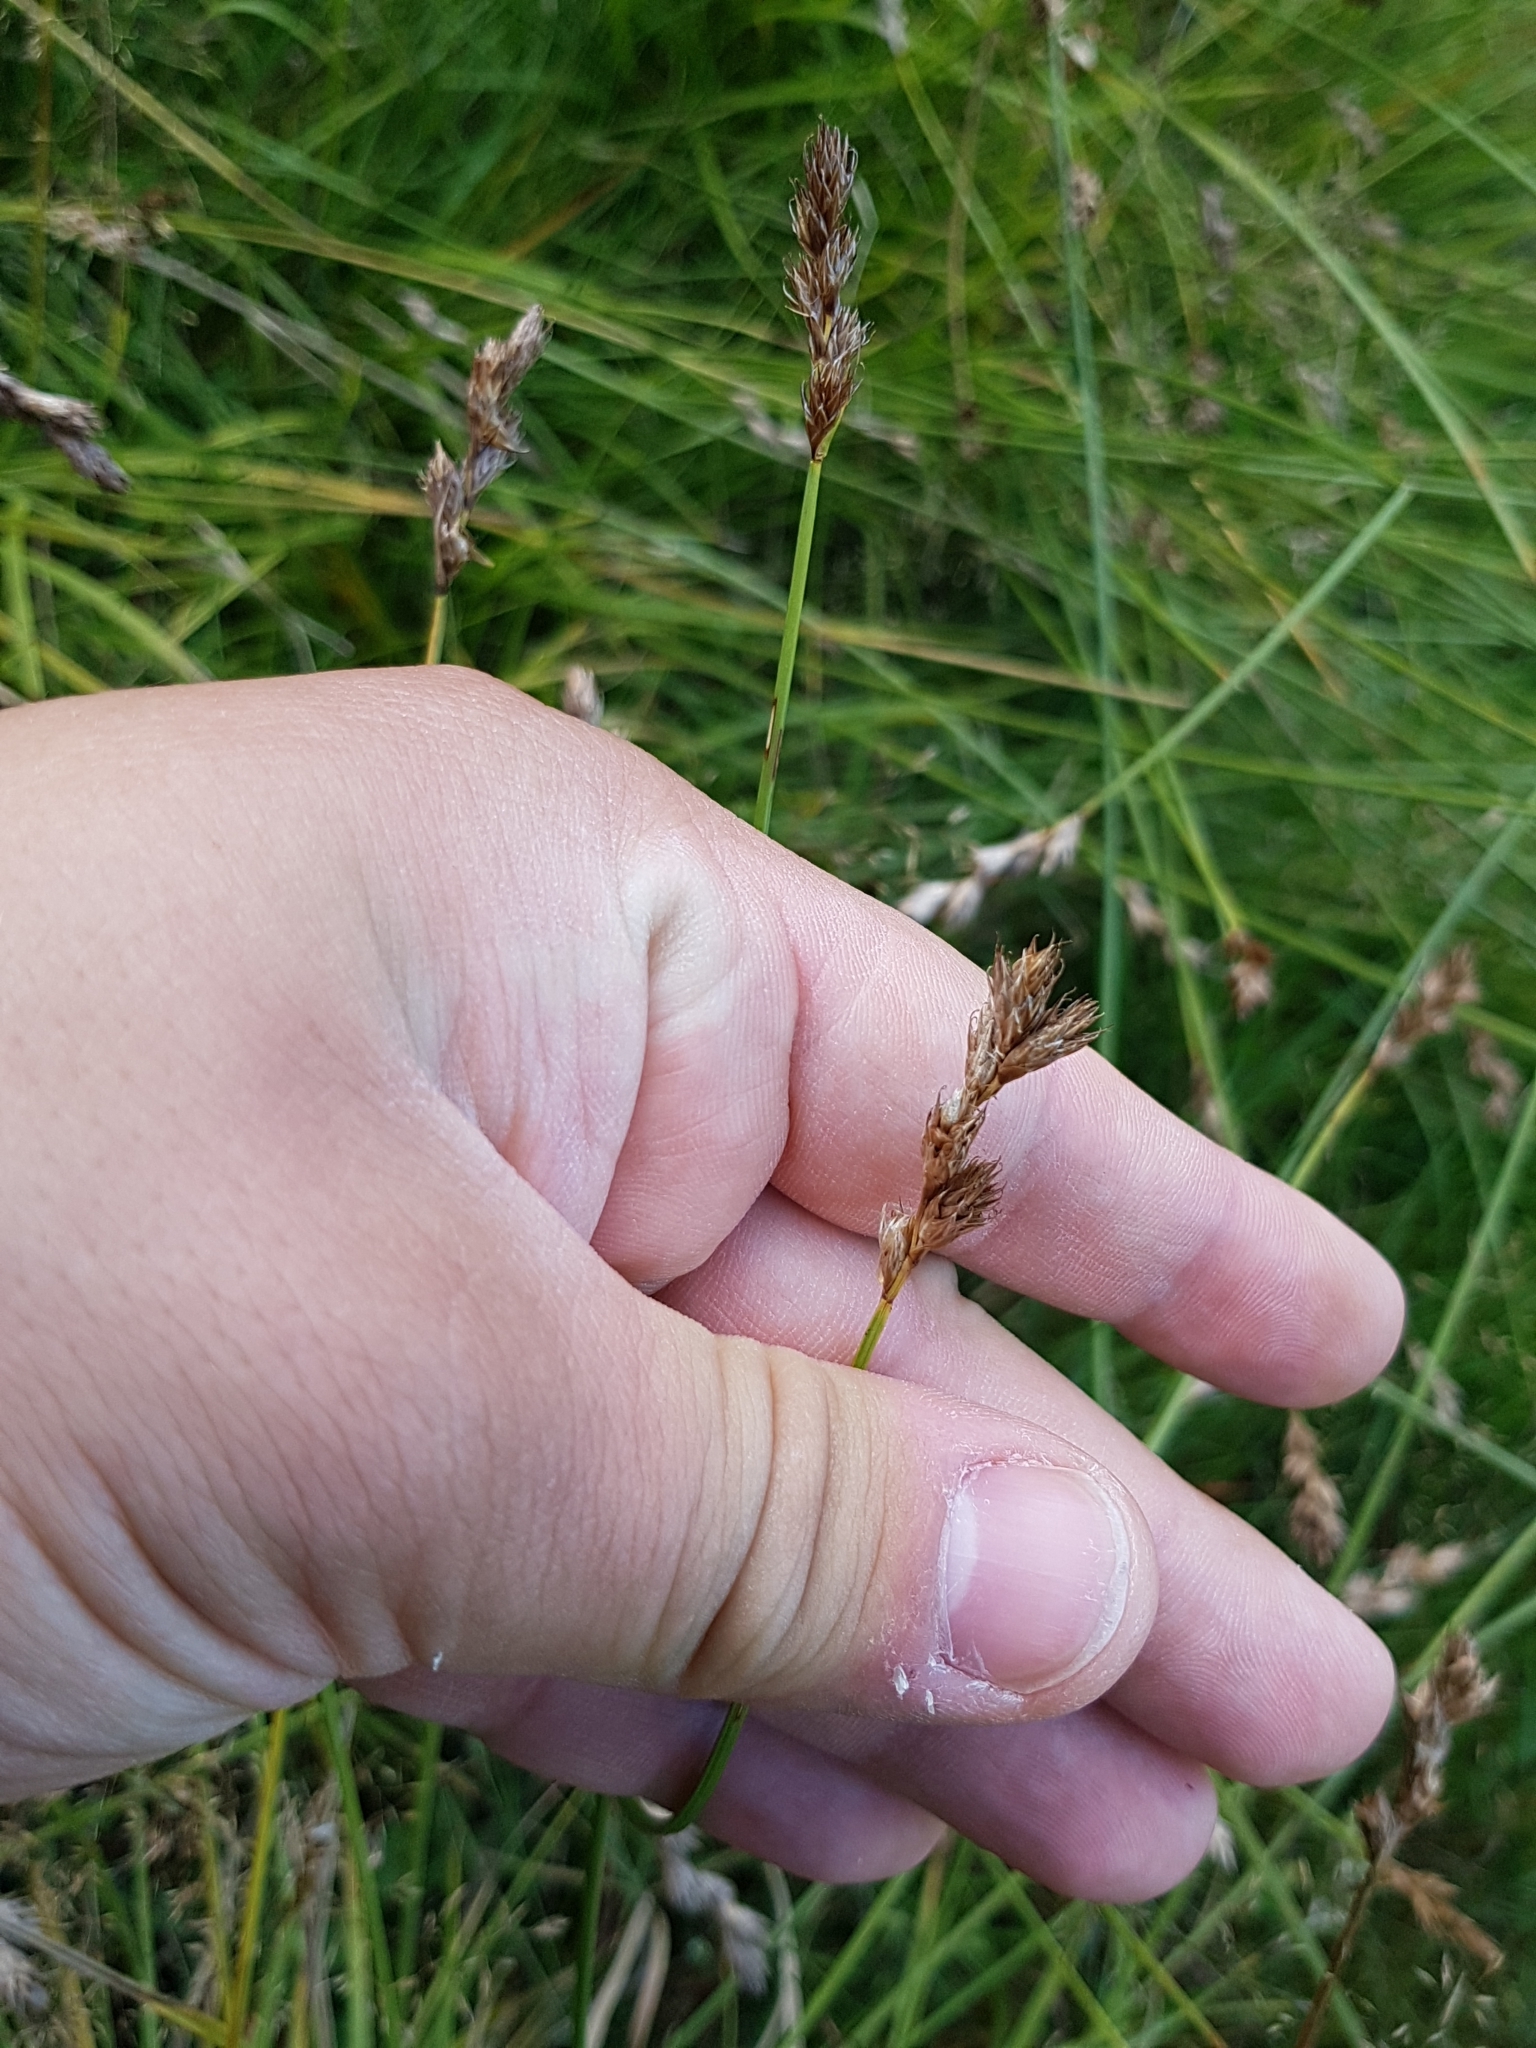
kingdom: Plantae
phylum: Tracheophyta
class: Liliopsida
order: Poales
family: Cyperaceae
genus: Carex
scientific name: Carex leporina
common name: Oval sedge
